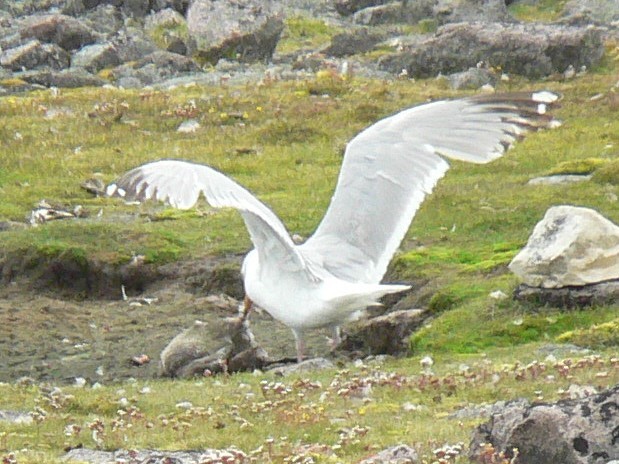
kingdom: Animalia
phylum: Chordata
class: Aves
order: Charadriiformes
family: Laridae
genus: Larus
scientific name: Larus smithsonianus
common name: American herring gull
